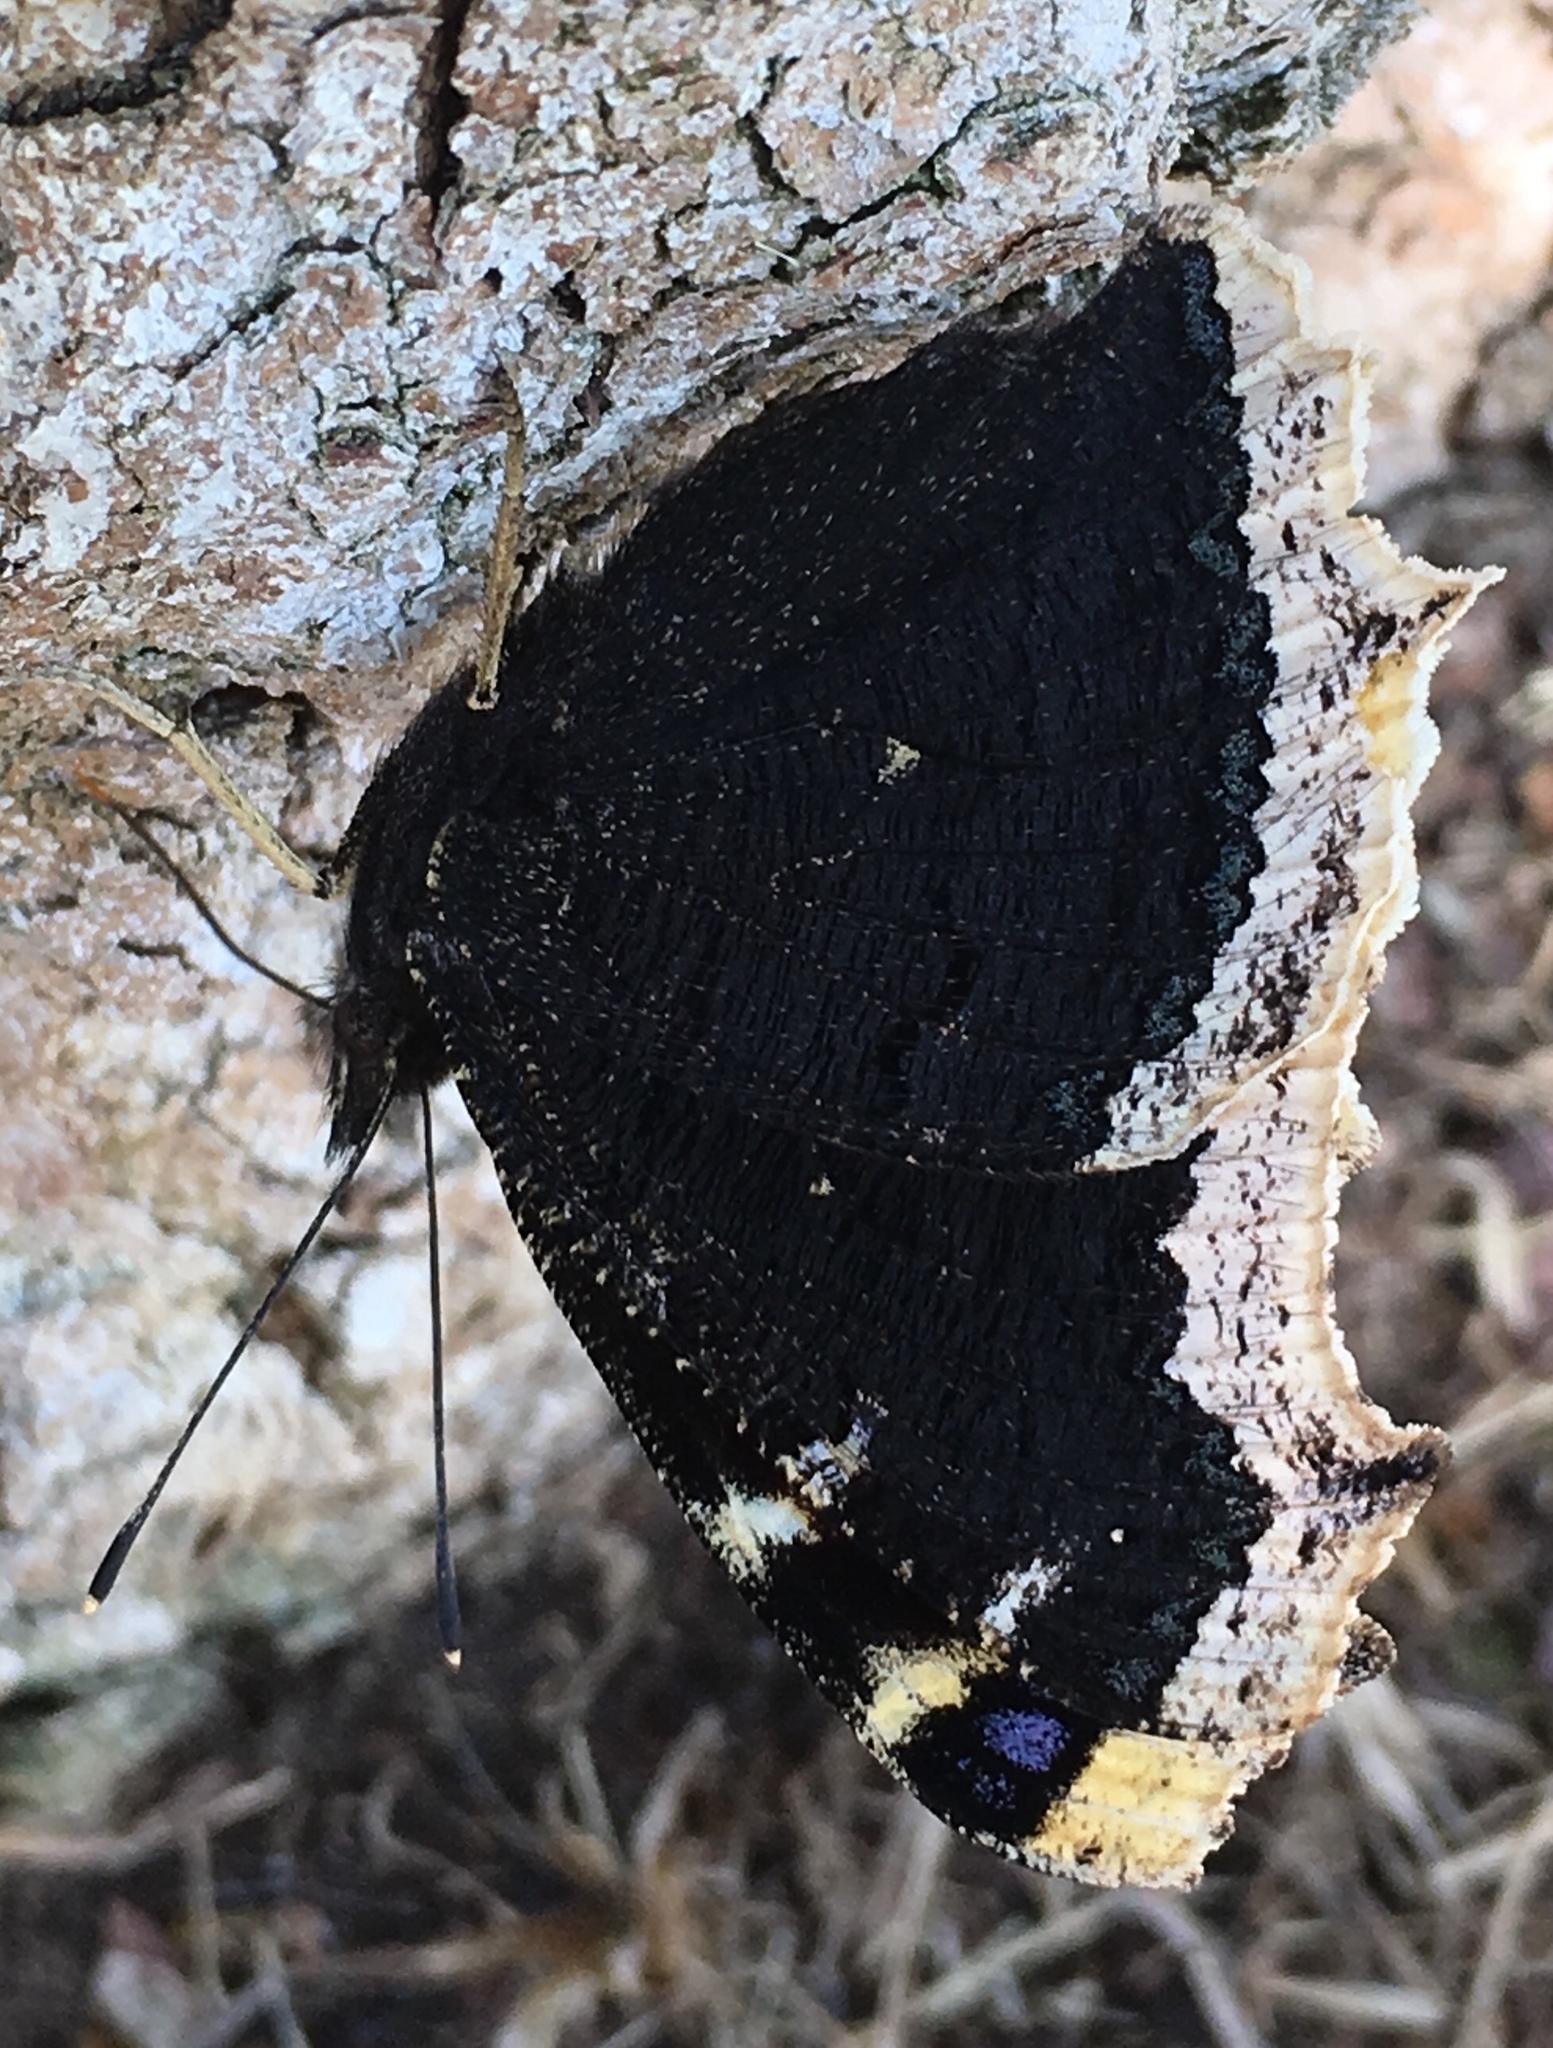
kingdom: Animalia
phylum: Arthropoda
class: Insecta
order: Lepidoptera
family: Nymphalidae
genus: Nymphalis
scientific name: Nymphalis antiopa
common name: Camberwell beauty
